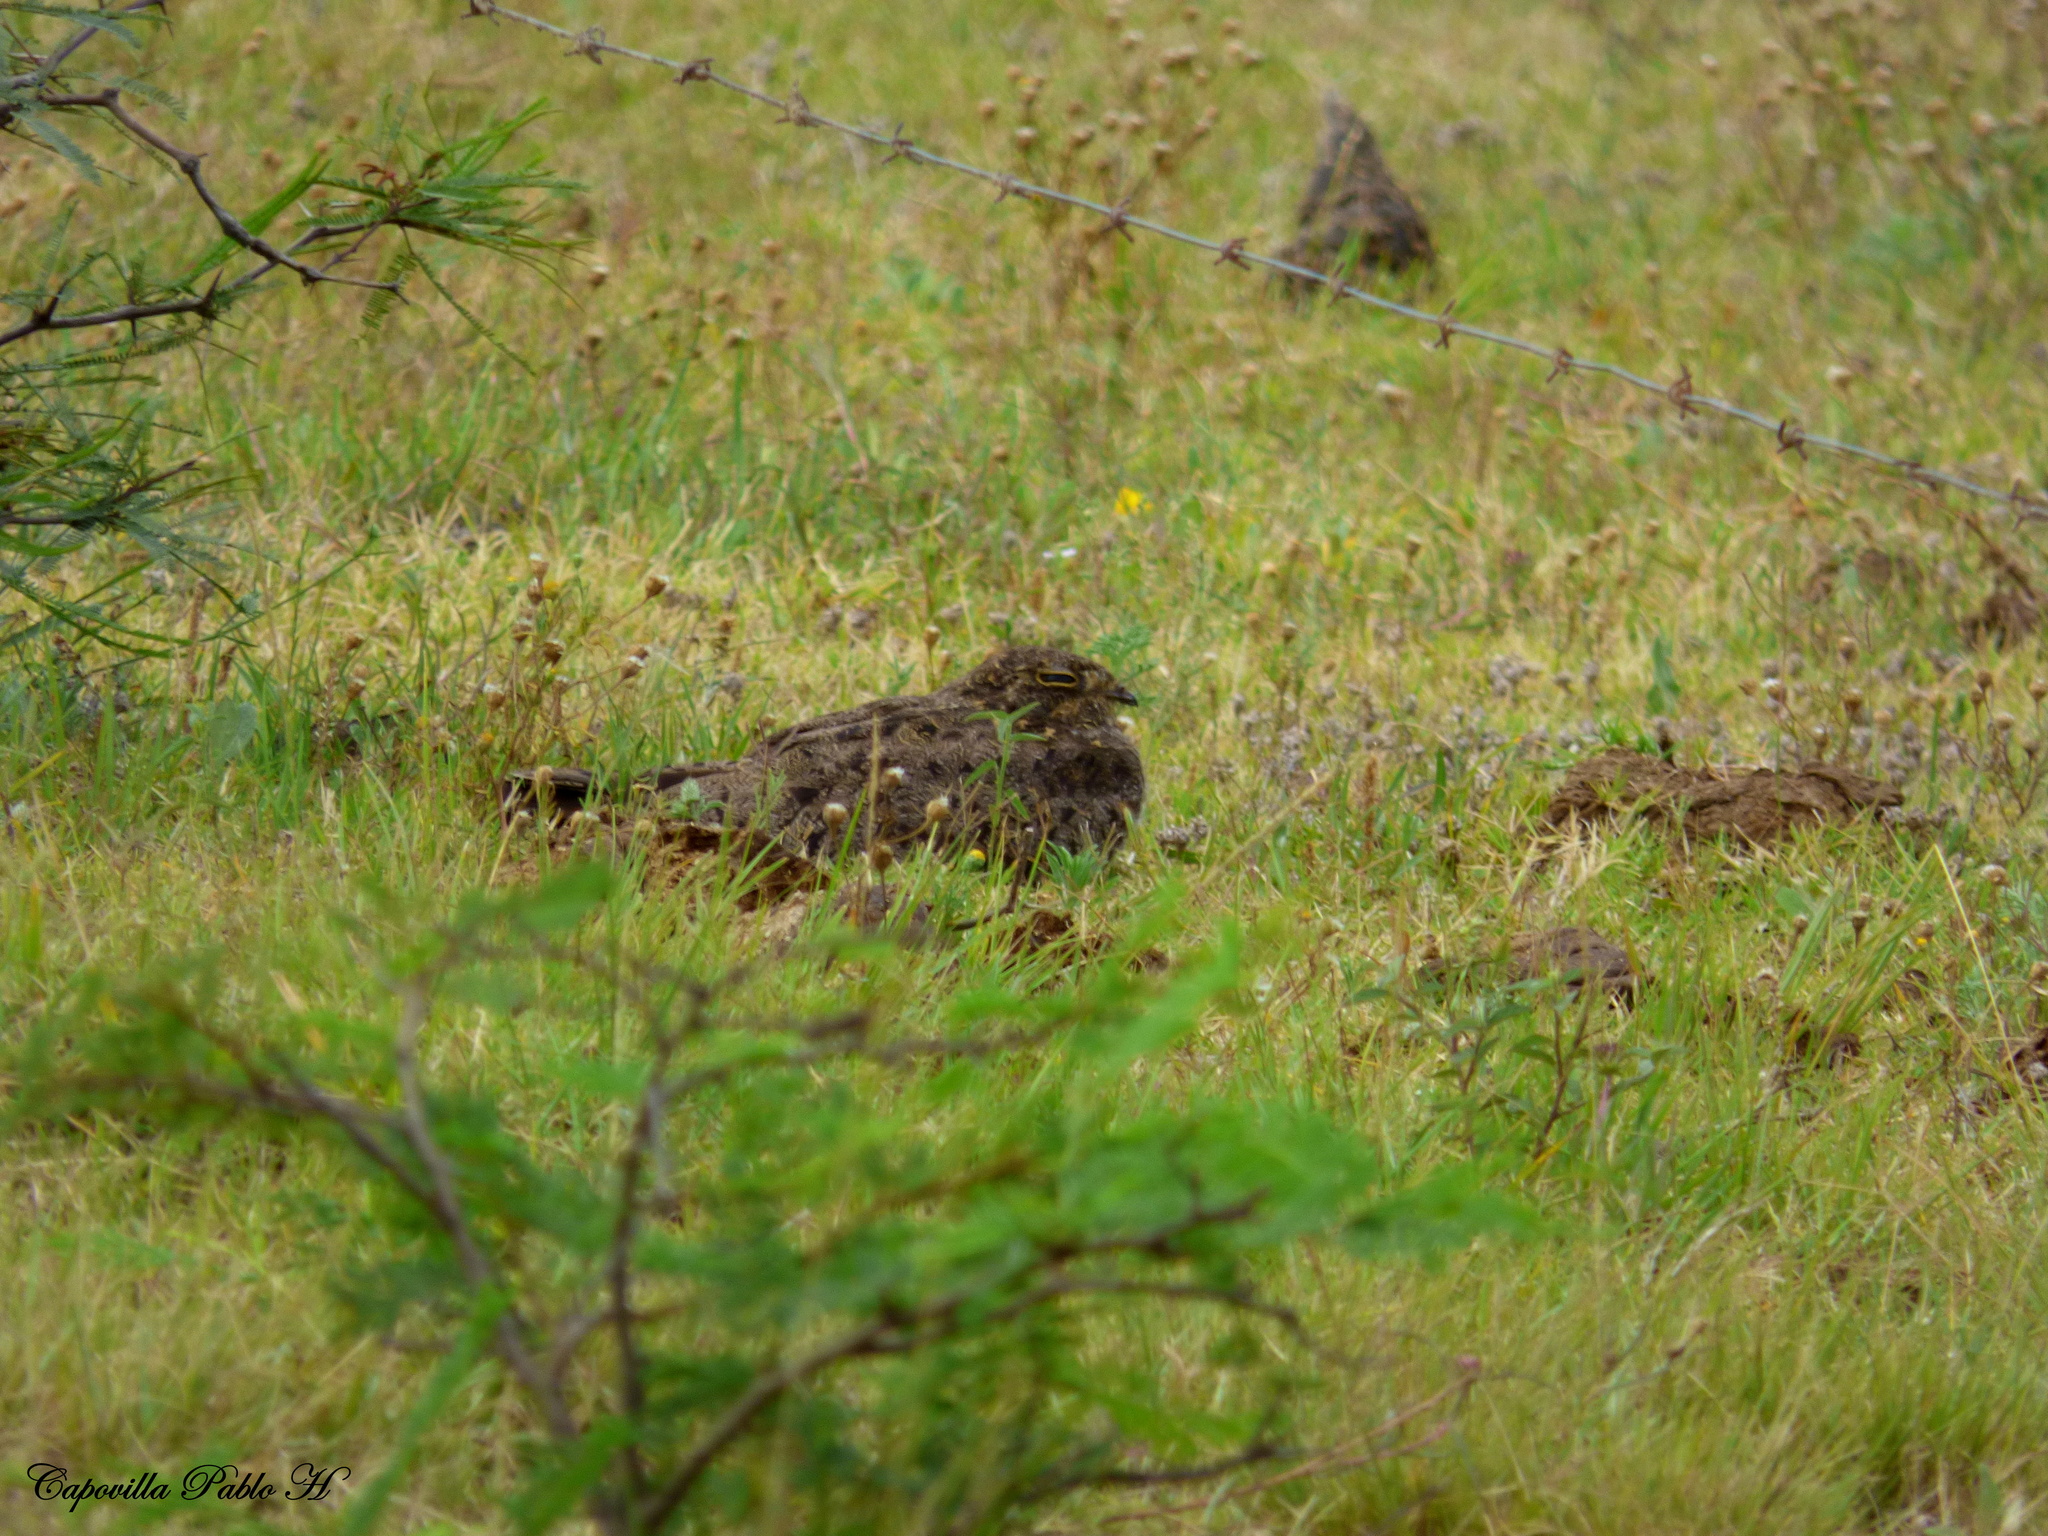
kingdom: Animalia
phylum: Chordata
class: Aves
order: Caprimulgiformes
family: Caprimulgidae
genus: Chordeiles
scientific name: Chordeiles nacunda
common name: Nacunda nighthawk
